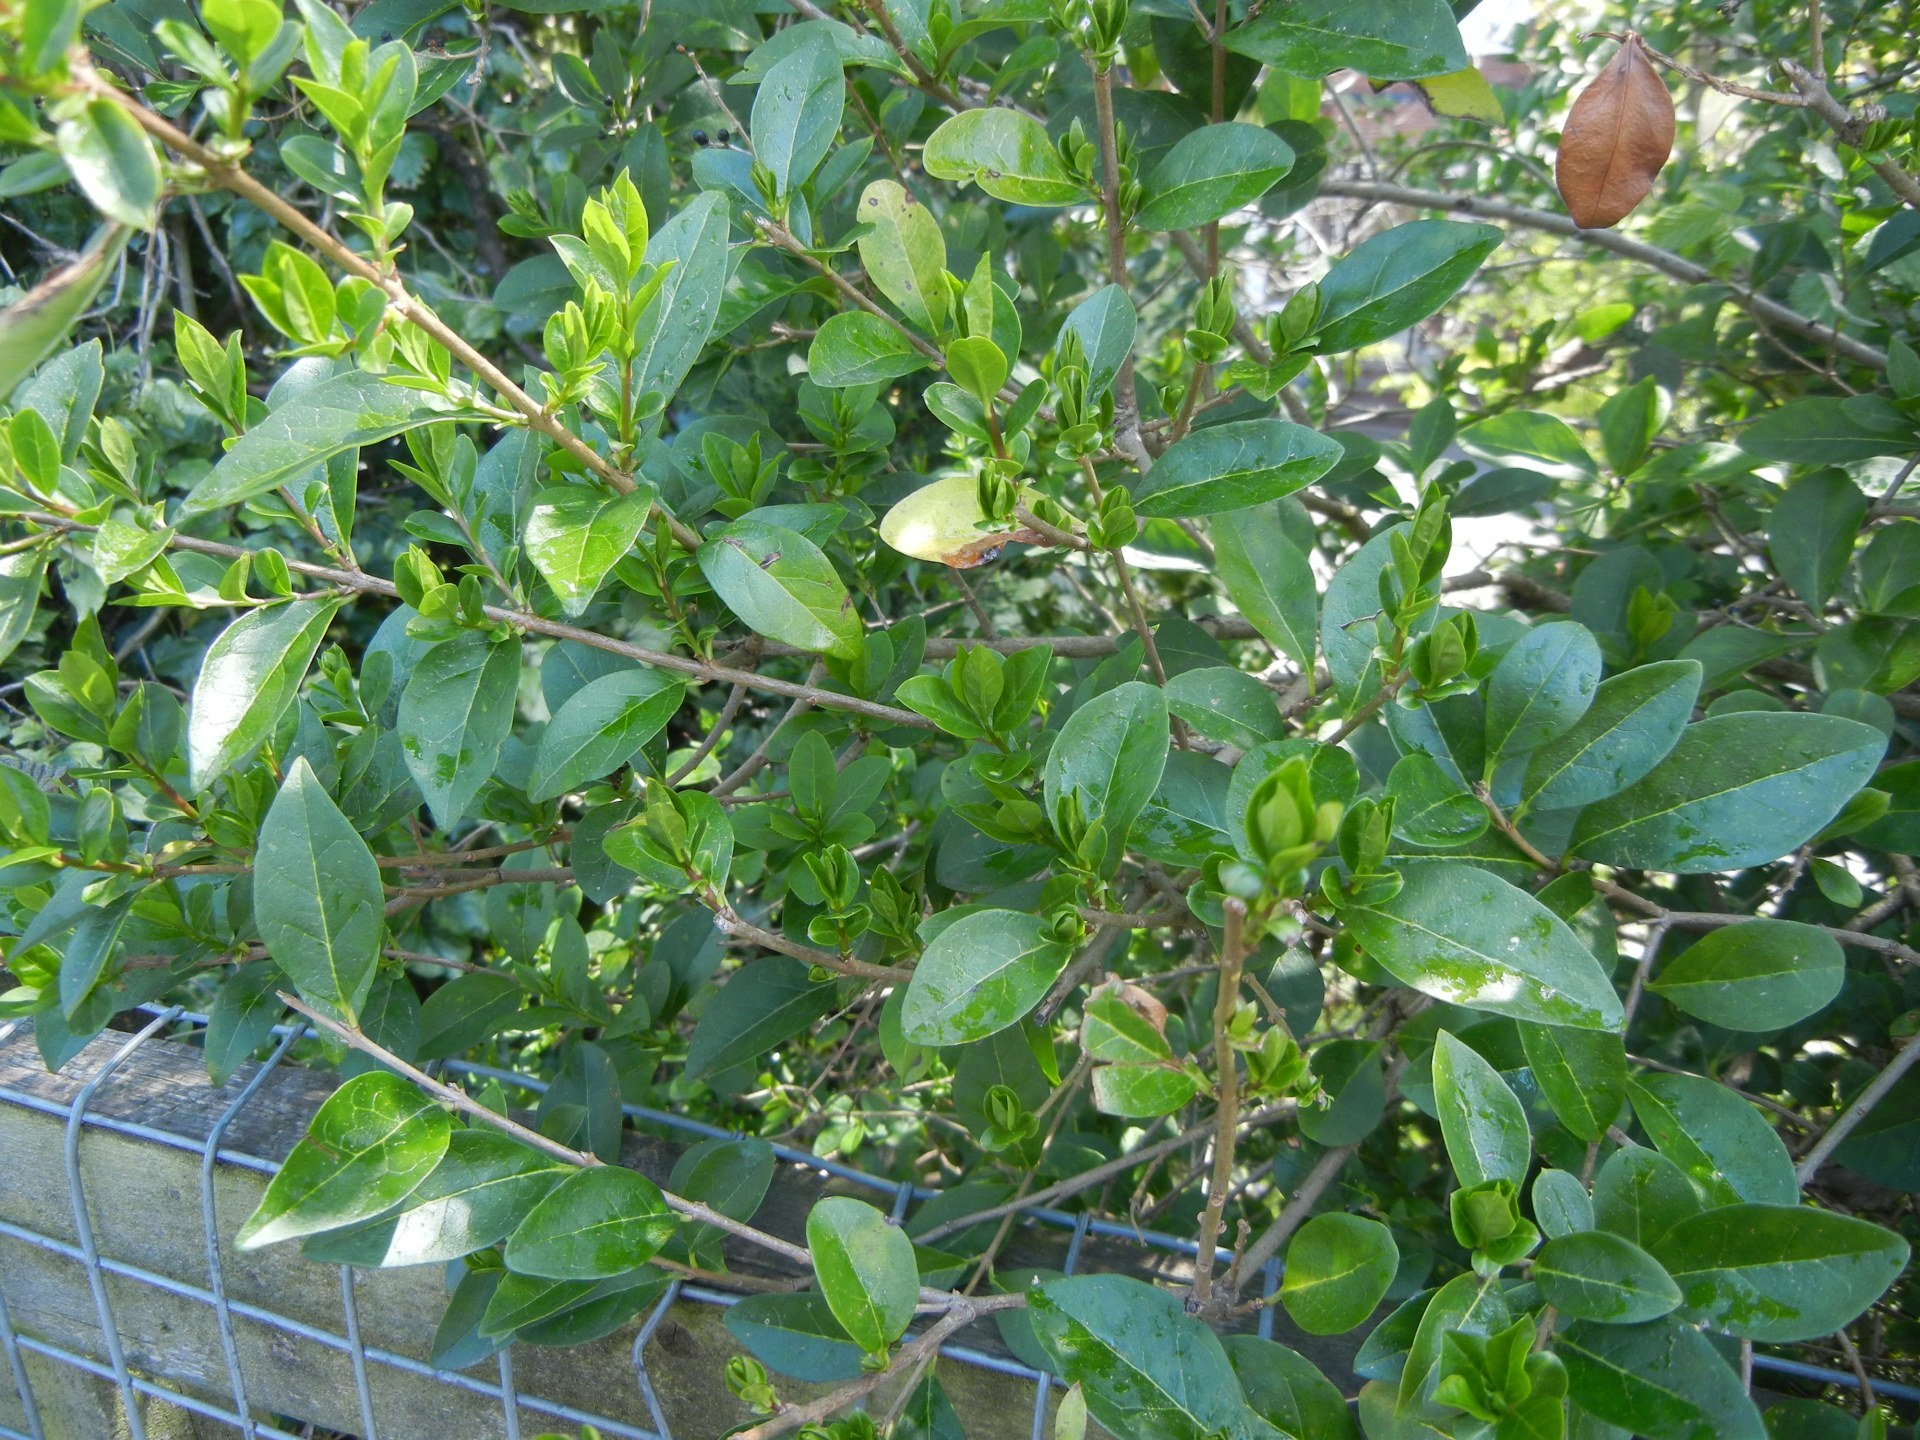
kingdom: Plantae
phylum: Tracheophyta
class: Magnoliopsida
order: Lamiales
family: Oleaceae
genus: Ligustrum
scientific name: Ligustrum ovalifolium
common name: California privet
